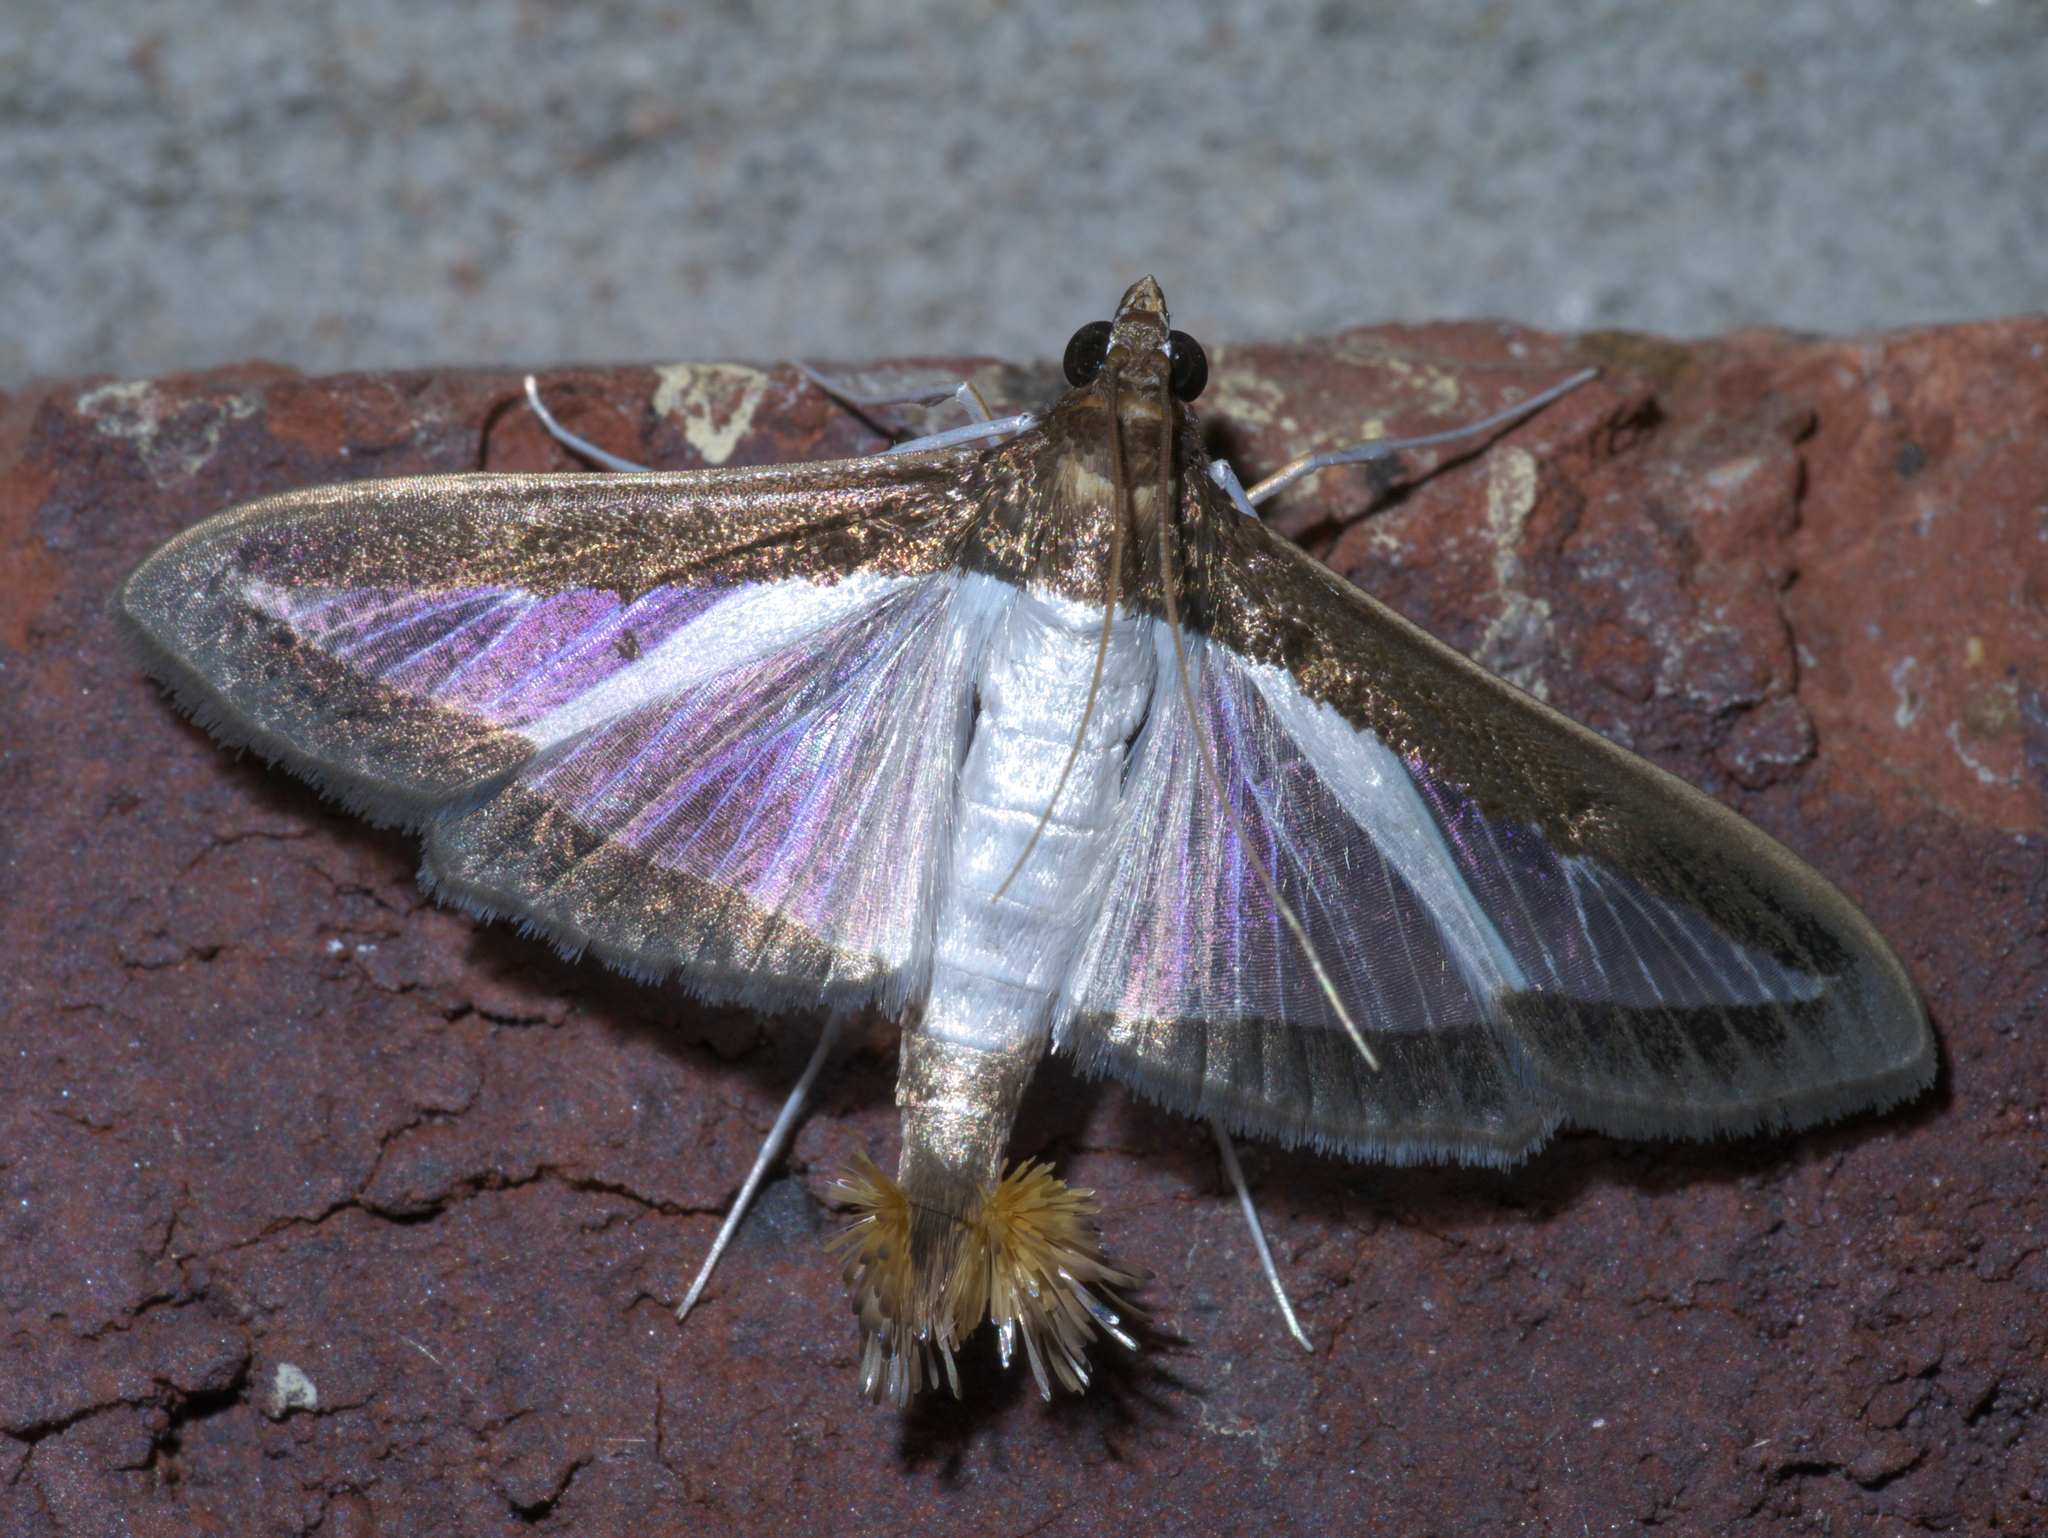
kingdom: Animalia
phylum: Arthropoda
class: Insecta
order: Lepidoptera
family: Crambidae
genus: Diaphania
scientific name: Diaphania hyalinata
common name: Melonworm
